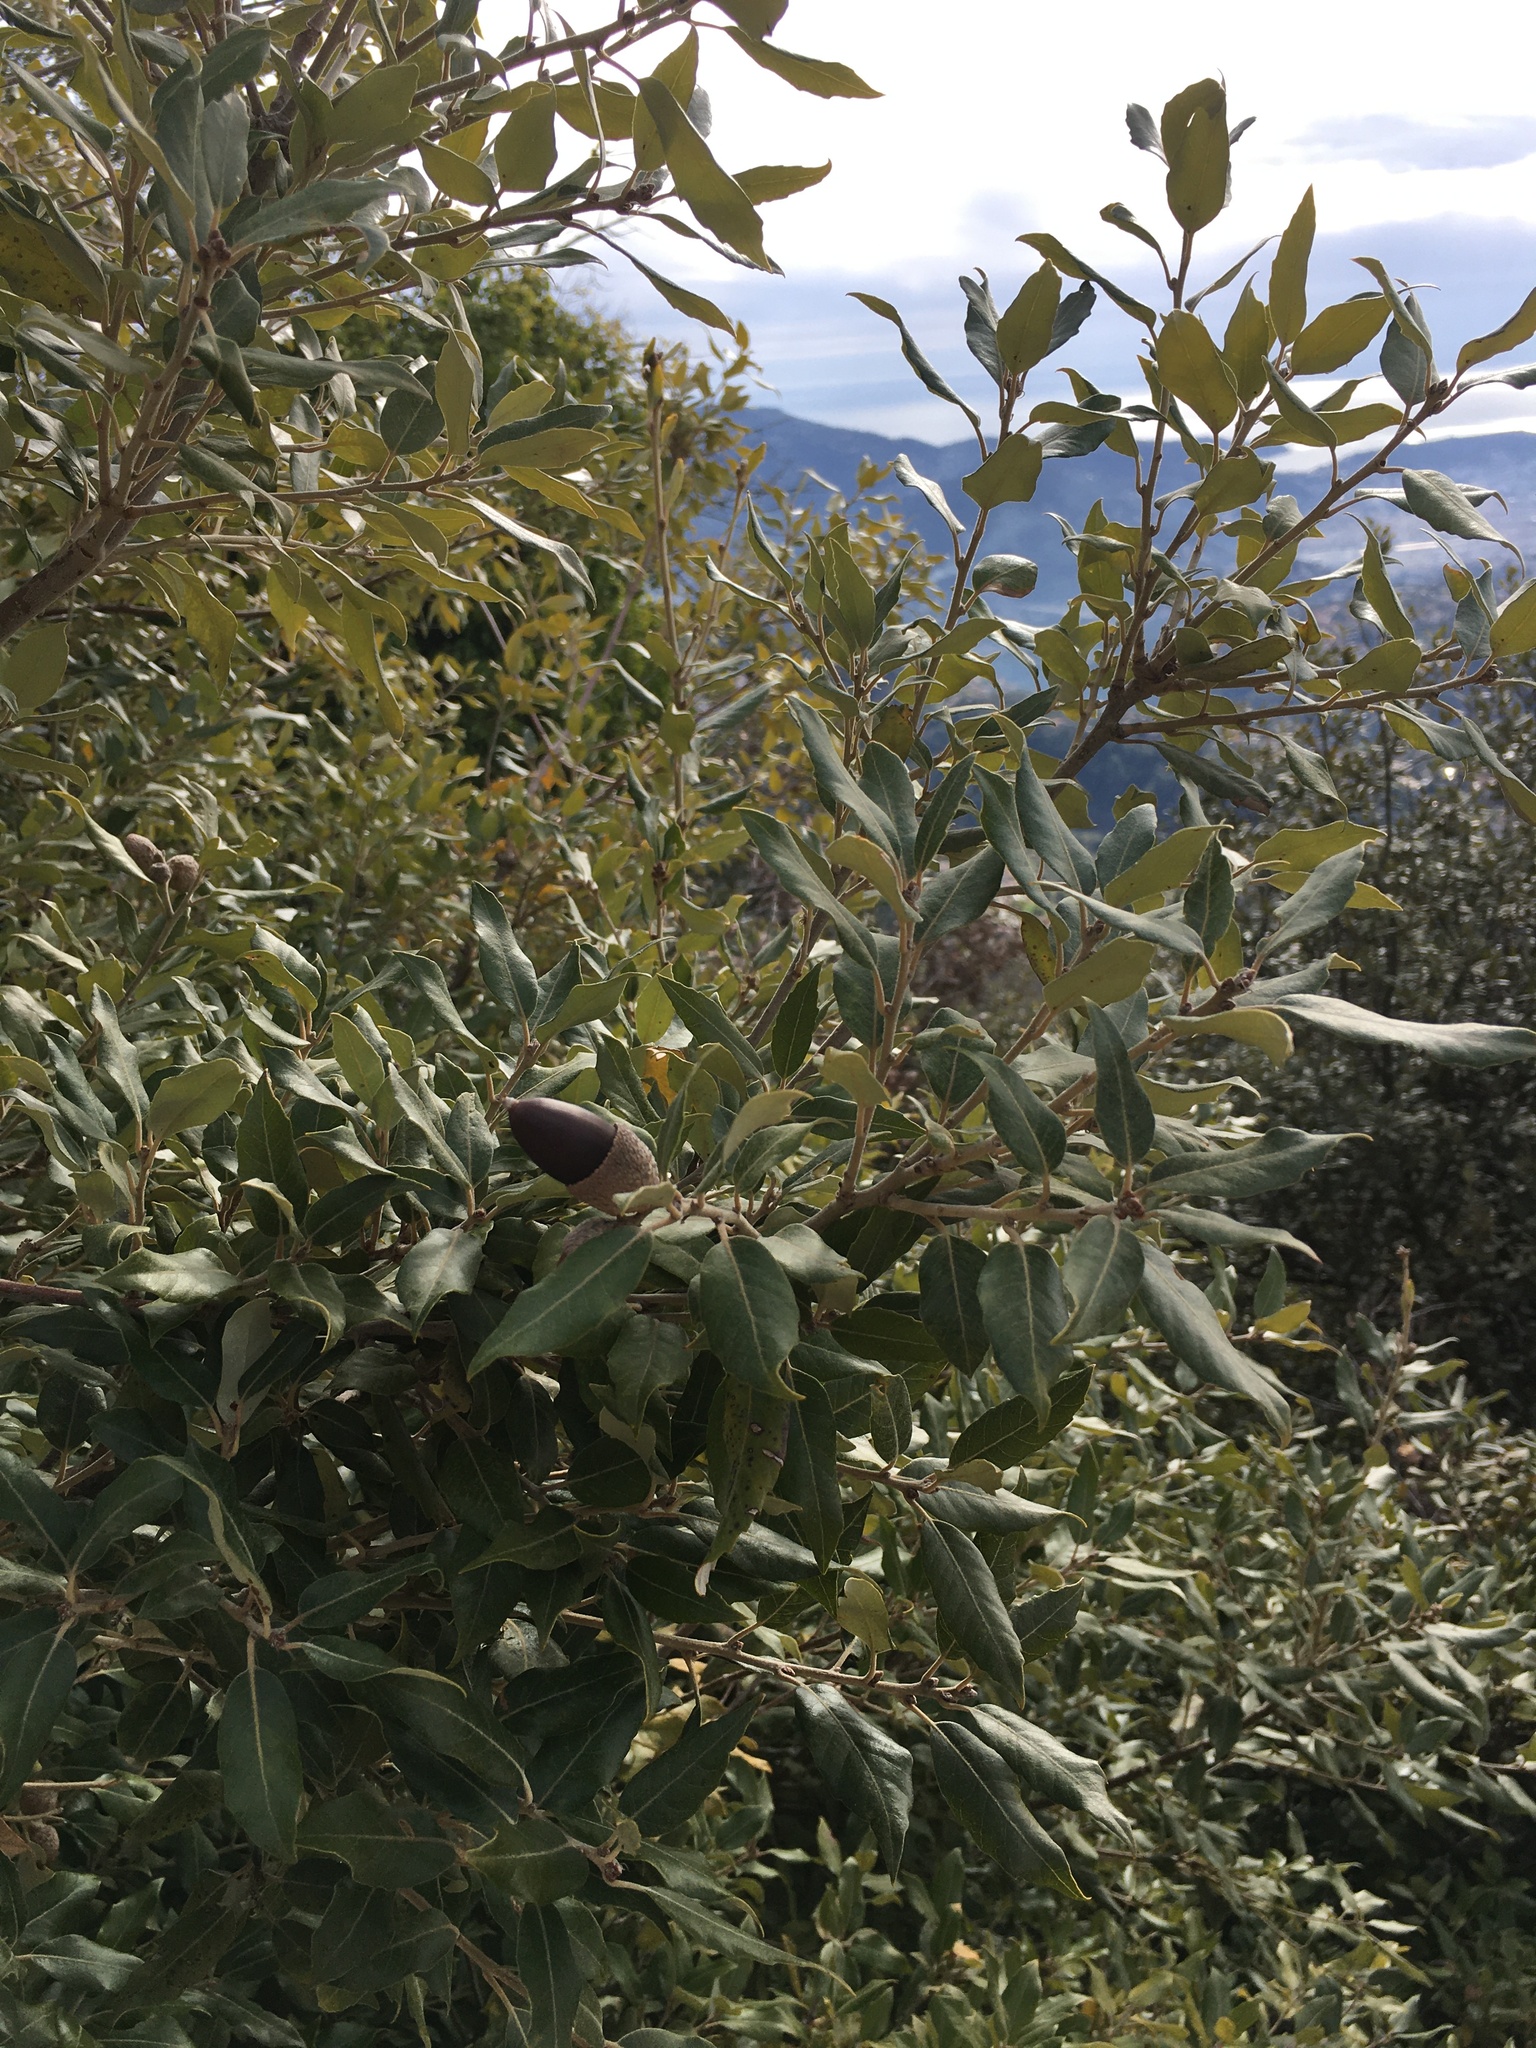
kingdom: Plantae
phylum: Tracheophyta
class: Magnoliopsida
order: Fagales
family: Fagaceae
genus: Quercus
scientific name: Quercus ilex
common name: Evergreen oak
